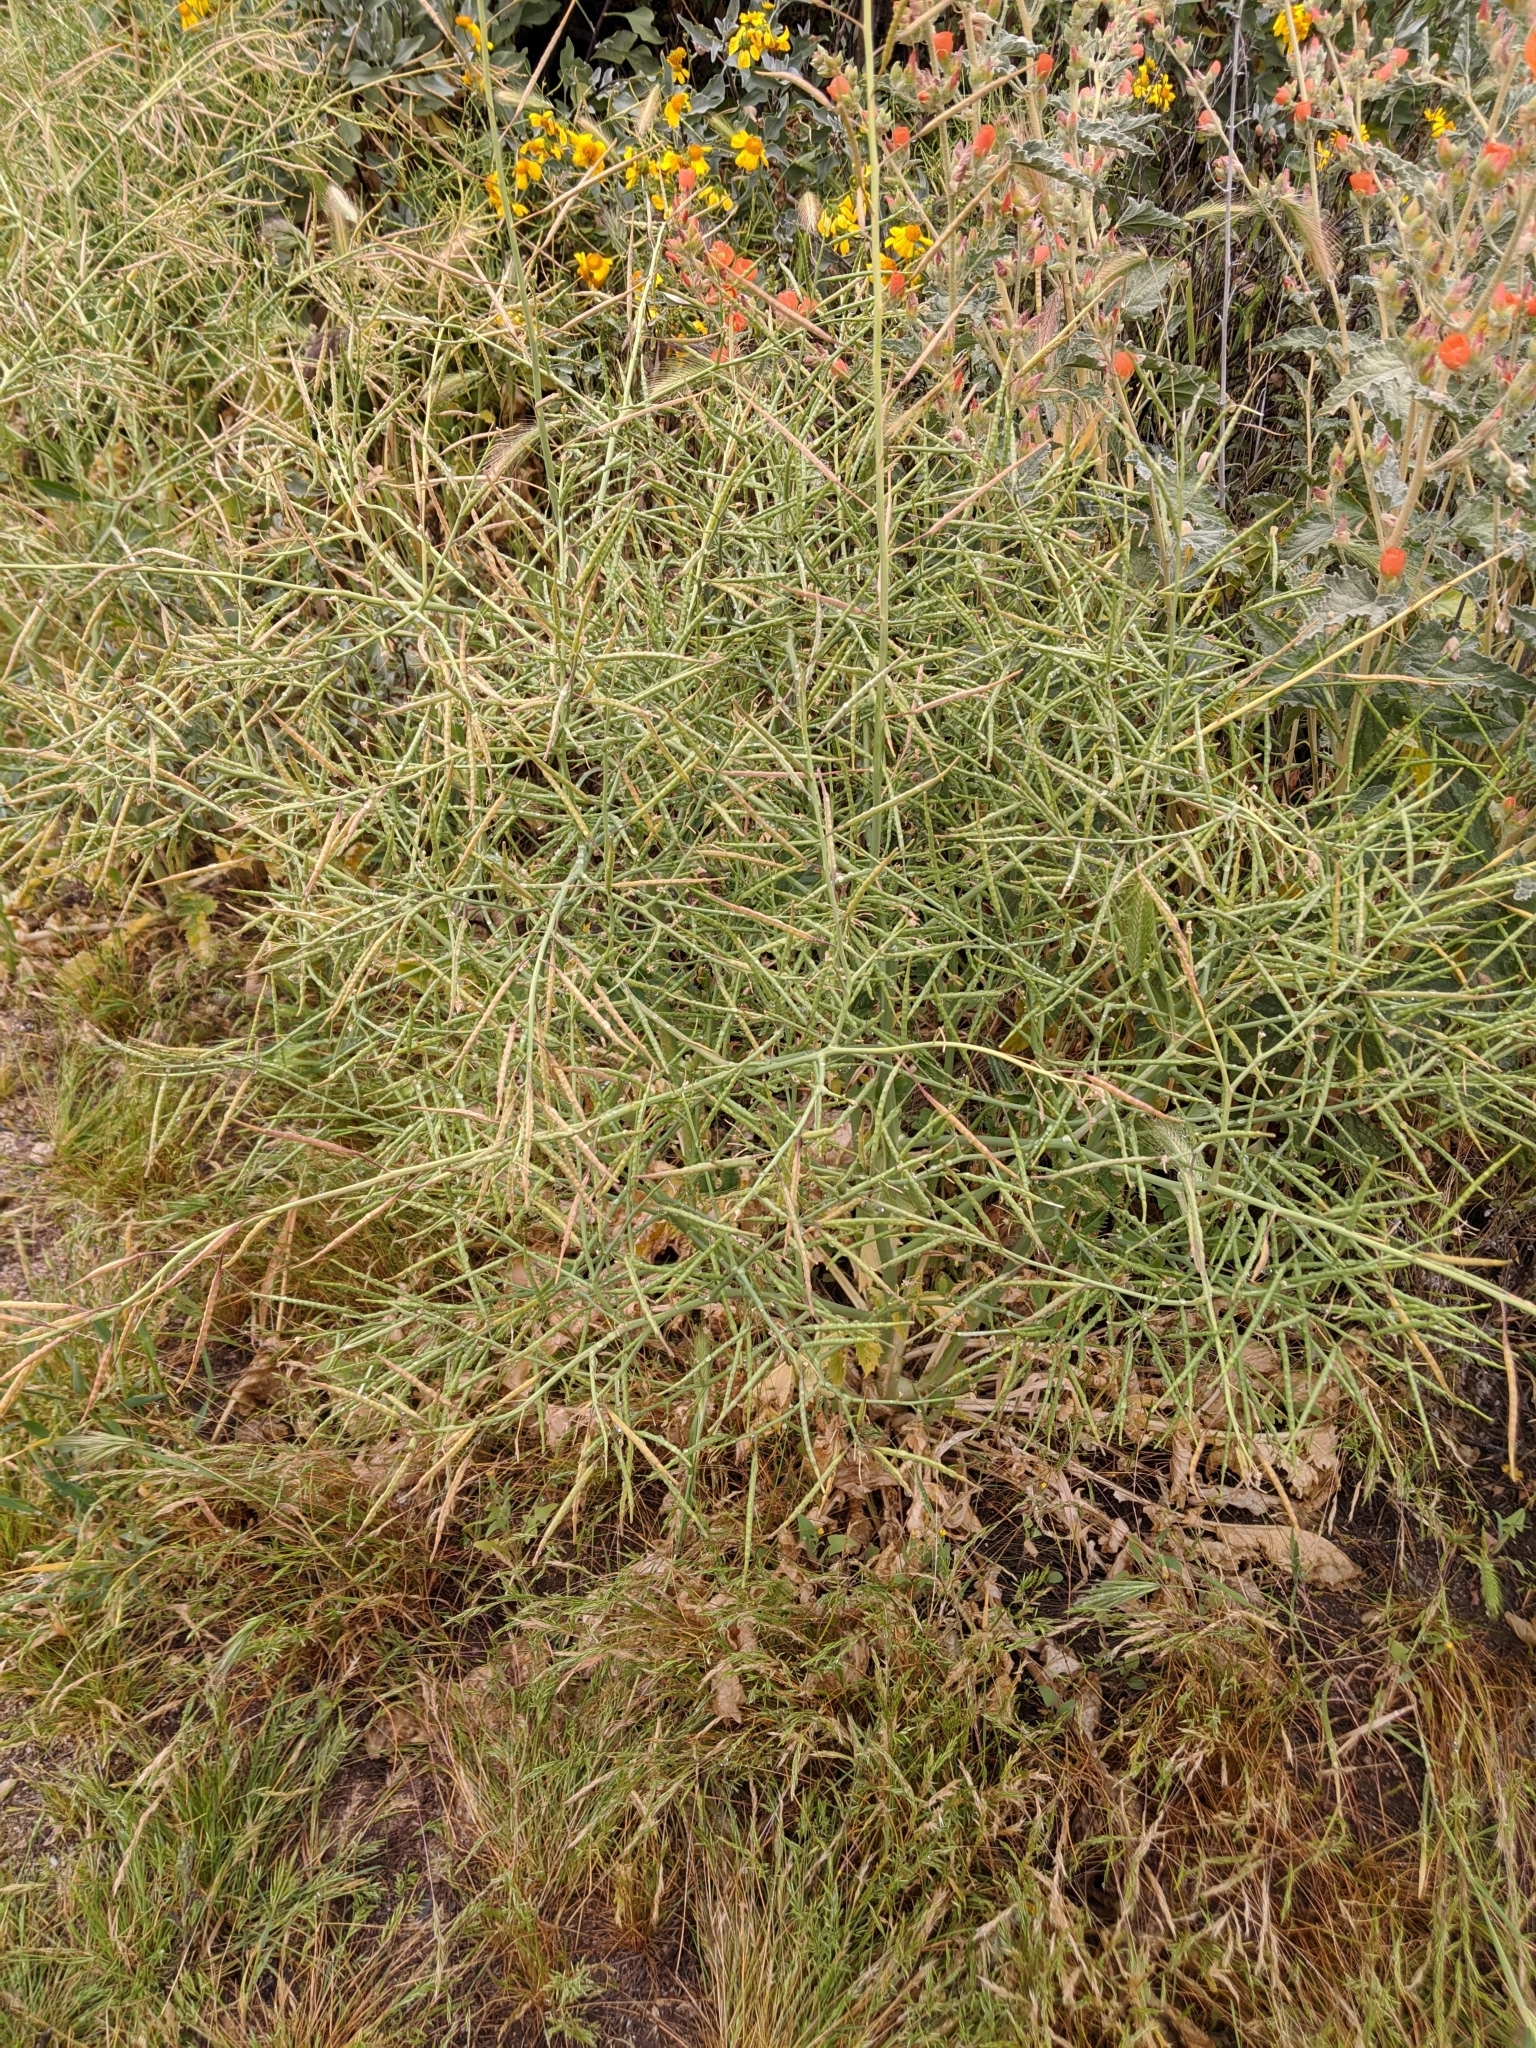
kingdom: Plantae
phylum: Tracheophyta
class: Magnoliopsida
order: Brassicales
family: Brassicaceae
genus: Brassica
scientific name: Brassica tournefortii
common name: Pale cabbage
